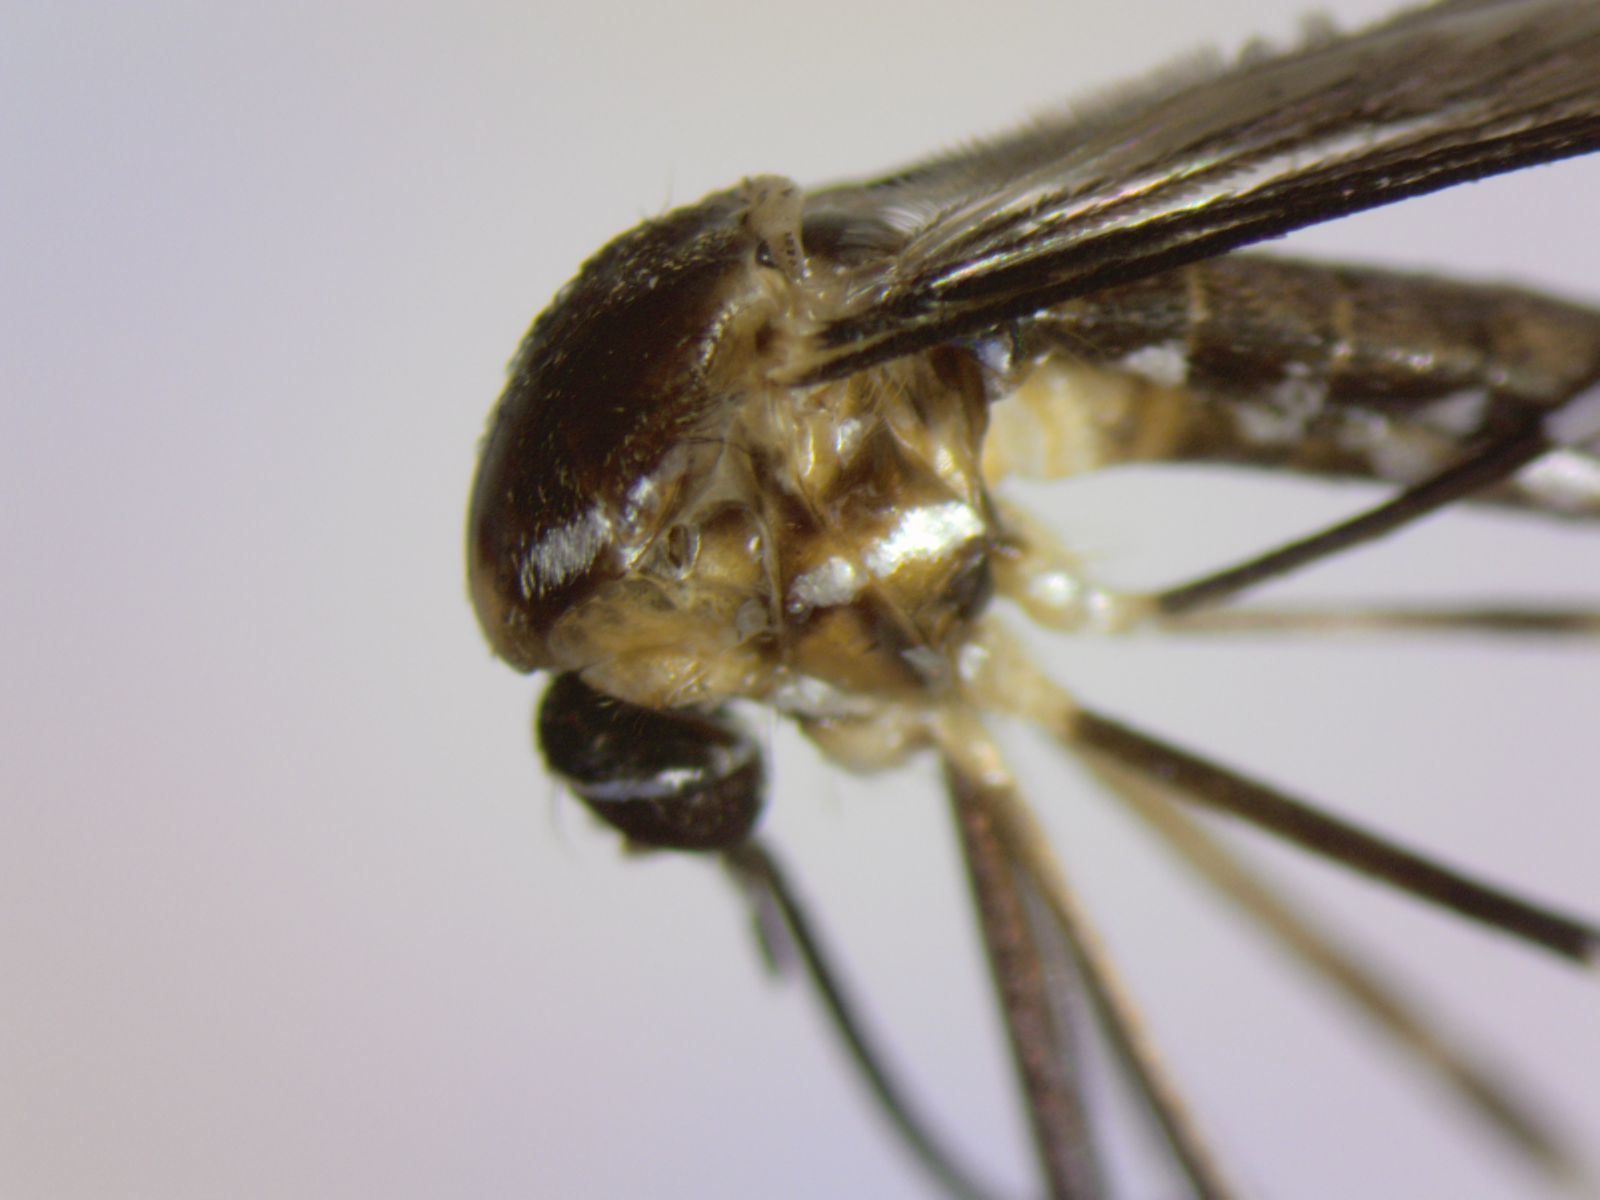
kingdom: Animalia
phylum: Arthropoda
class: Insecta
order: Diptera
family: Culicidae
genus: Maorigoeldia
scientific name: Maorigoeldia argyropus
